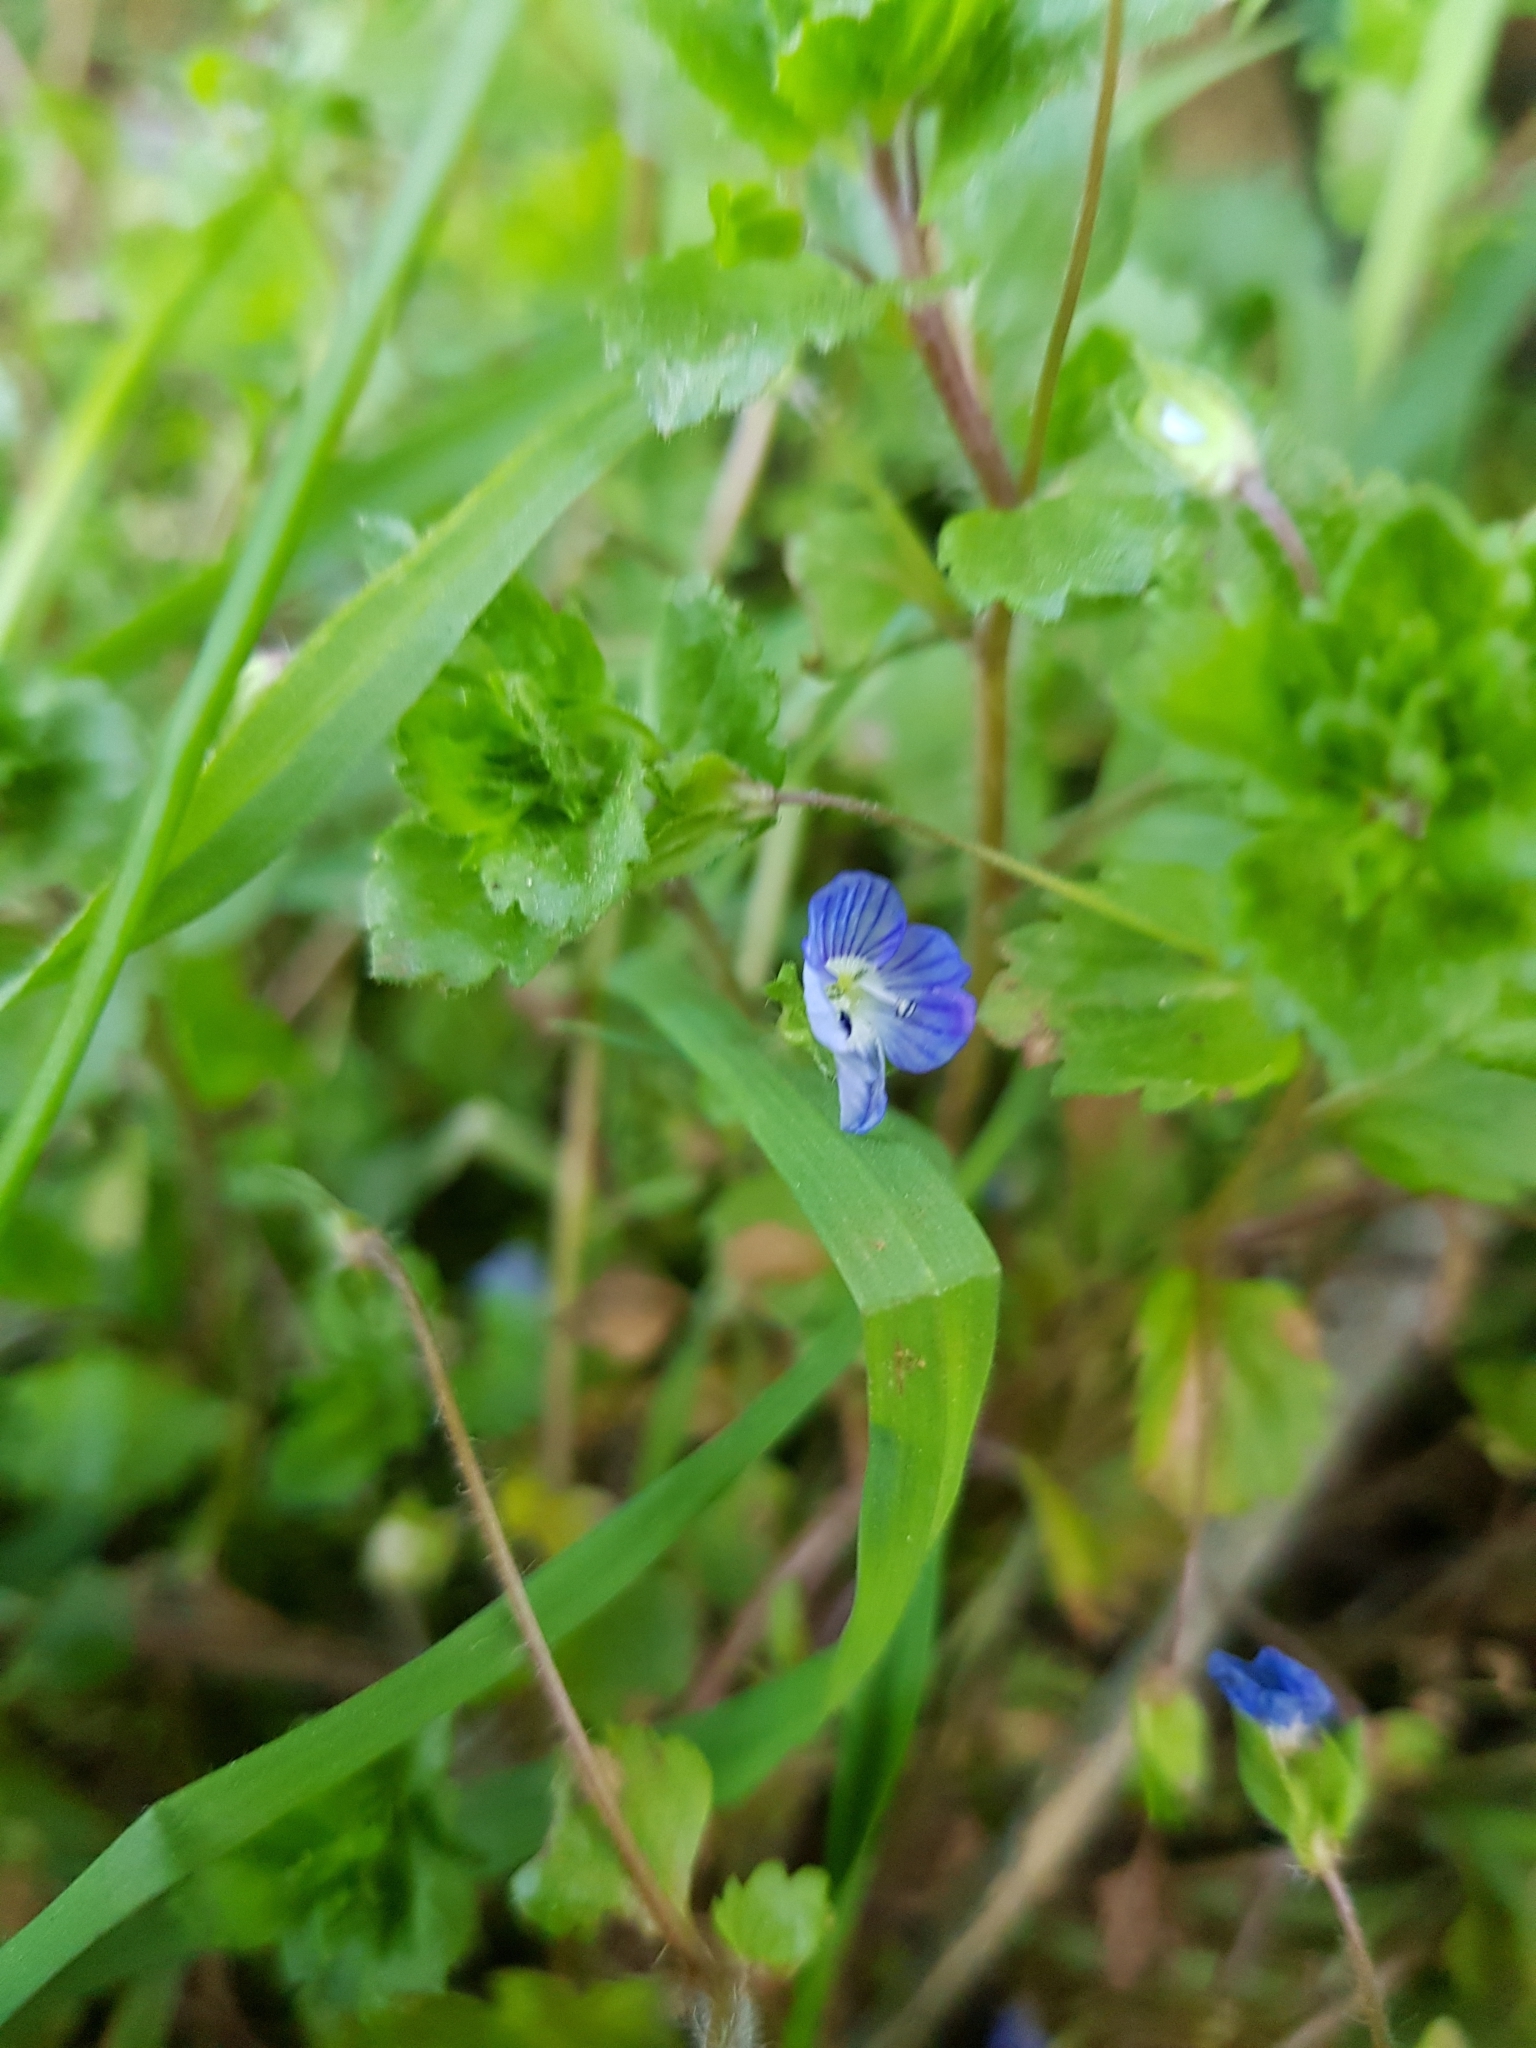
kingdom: Plantae
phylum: Tracheophyta
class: Magnoliopsida
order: Lamiales
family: Plantaginaceae
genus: Veronica
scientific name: Veronica persica
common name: Common field-speedwell
